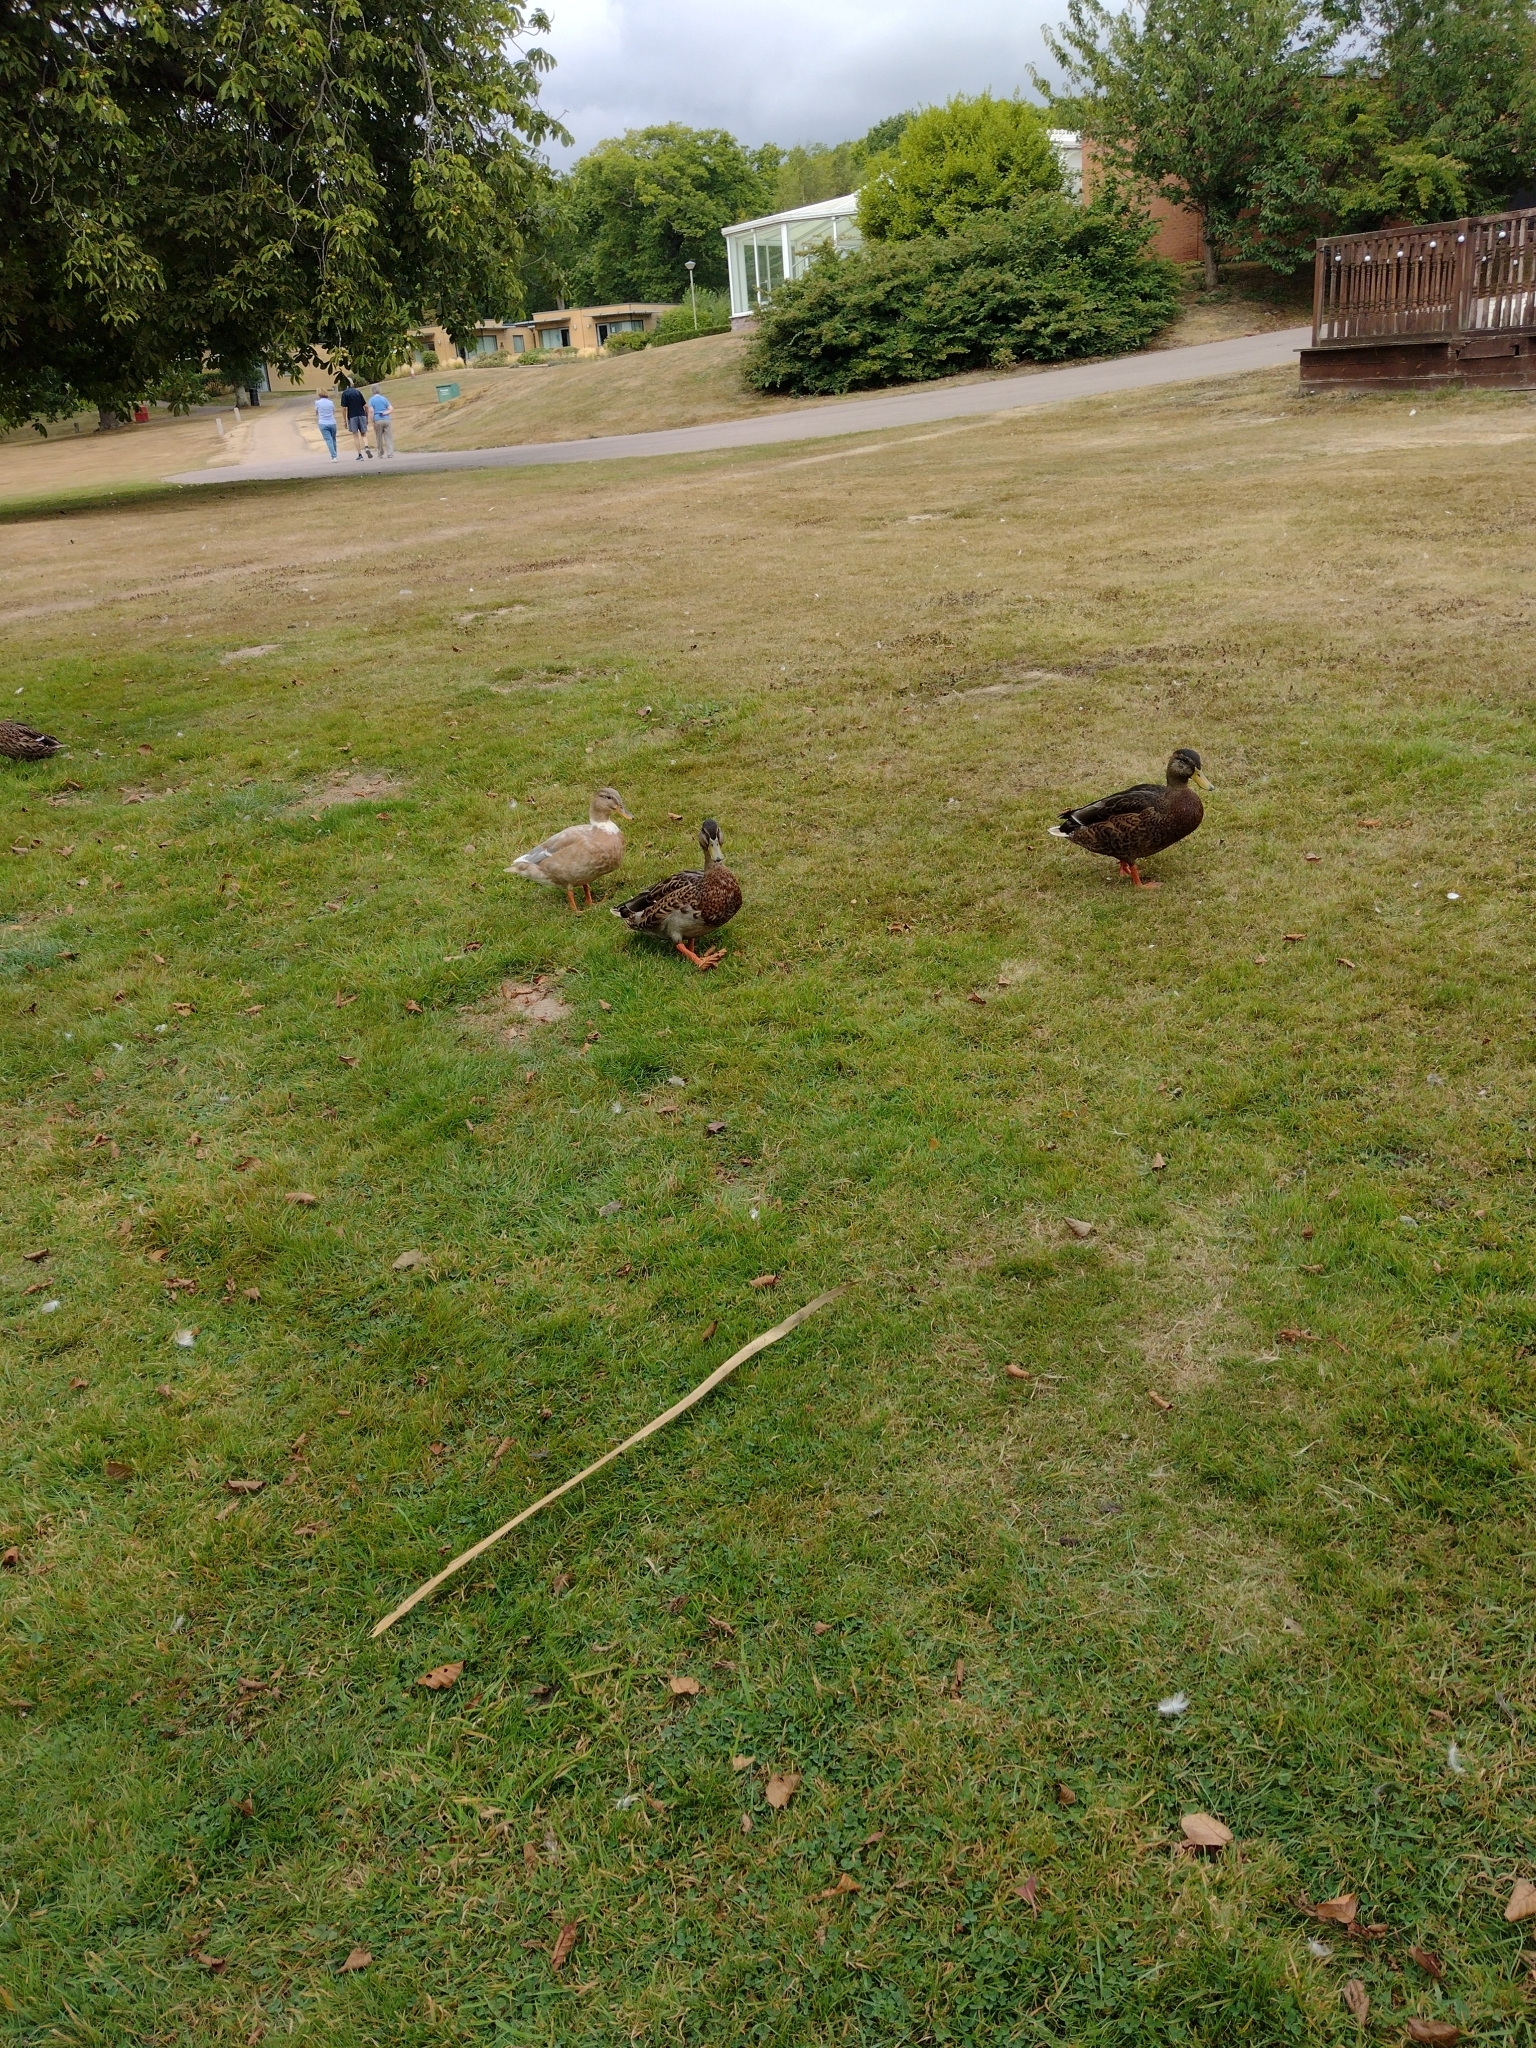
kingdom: Animalia
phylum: Chordata
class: Aves
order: Anseriformes
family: Anatidae
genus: Anas
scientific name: Anas platyrhynchos
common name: Mallard
